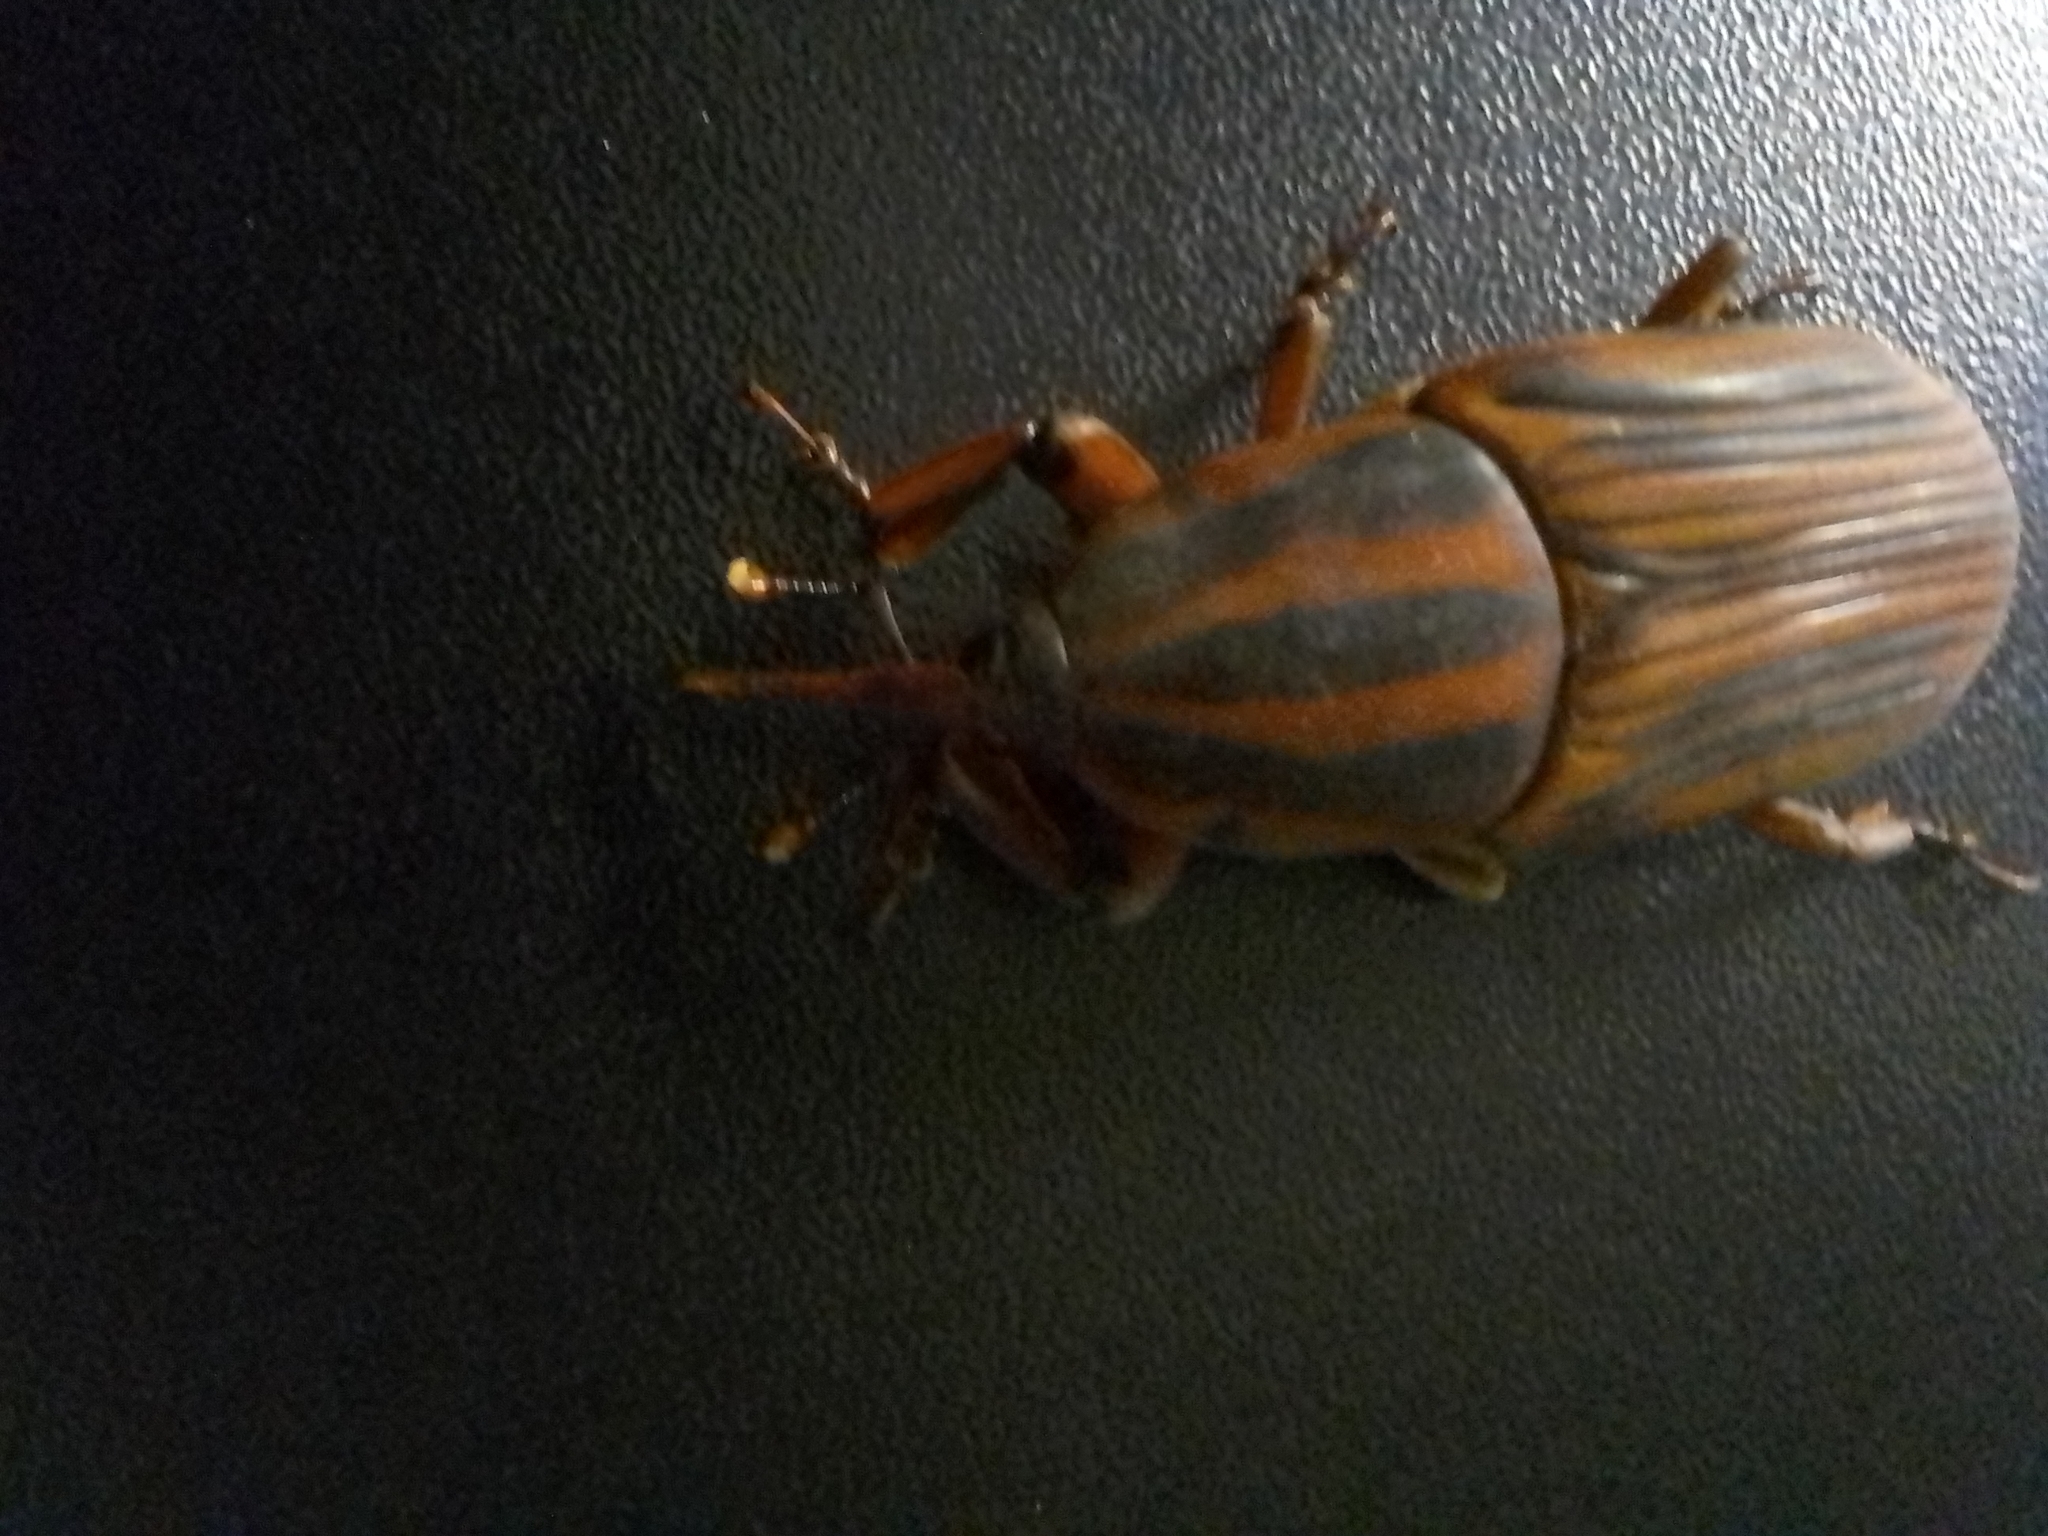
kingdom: Animalia
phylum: Arthropoda
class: Insecta
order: Coleoptera
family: Dryophthoridae
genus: Rhynchophorus
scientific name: Rhynchophorus phoenicis
